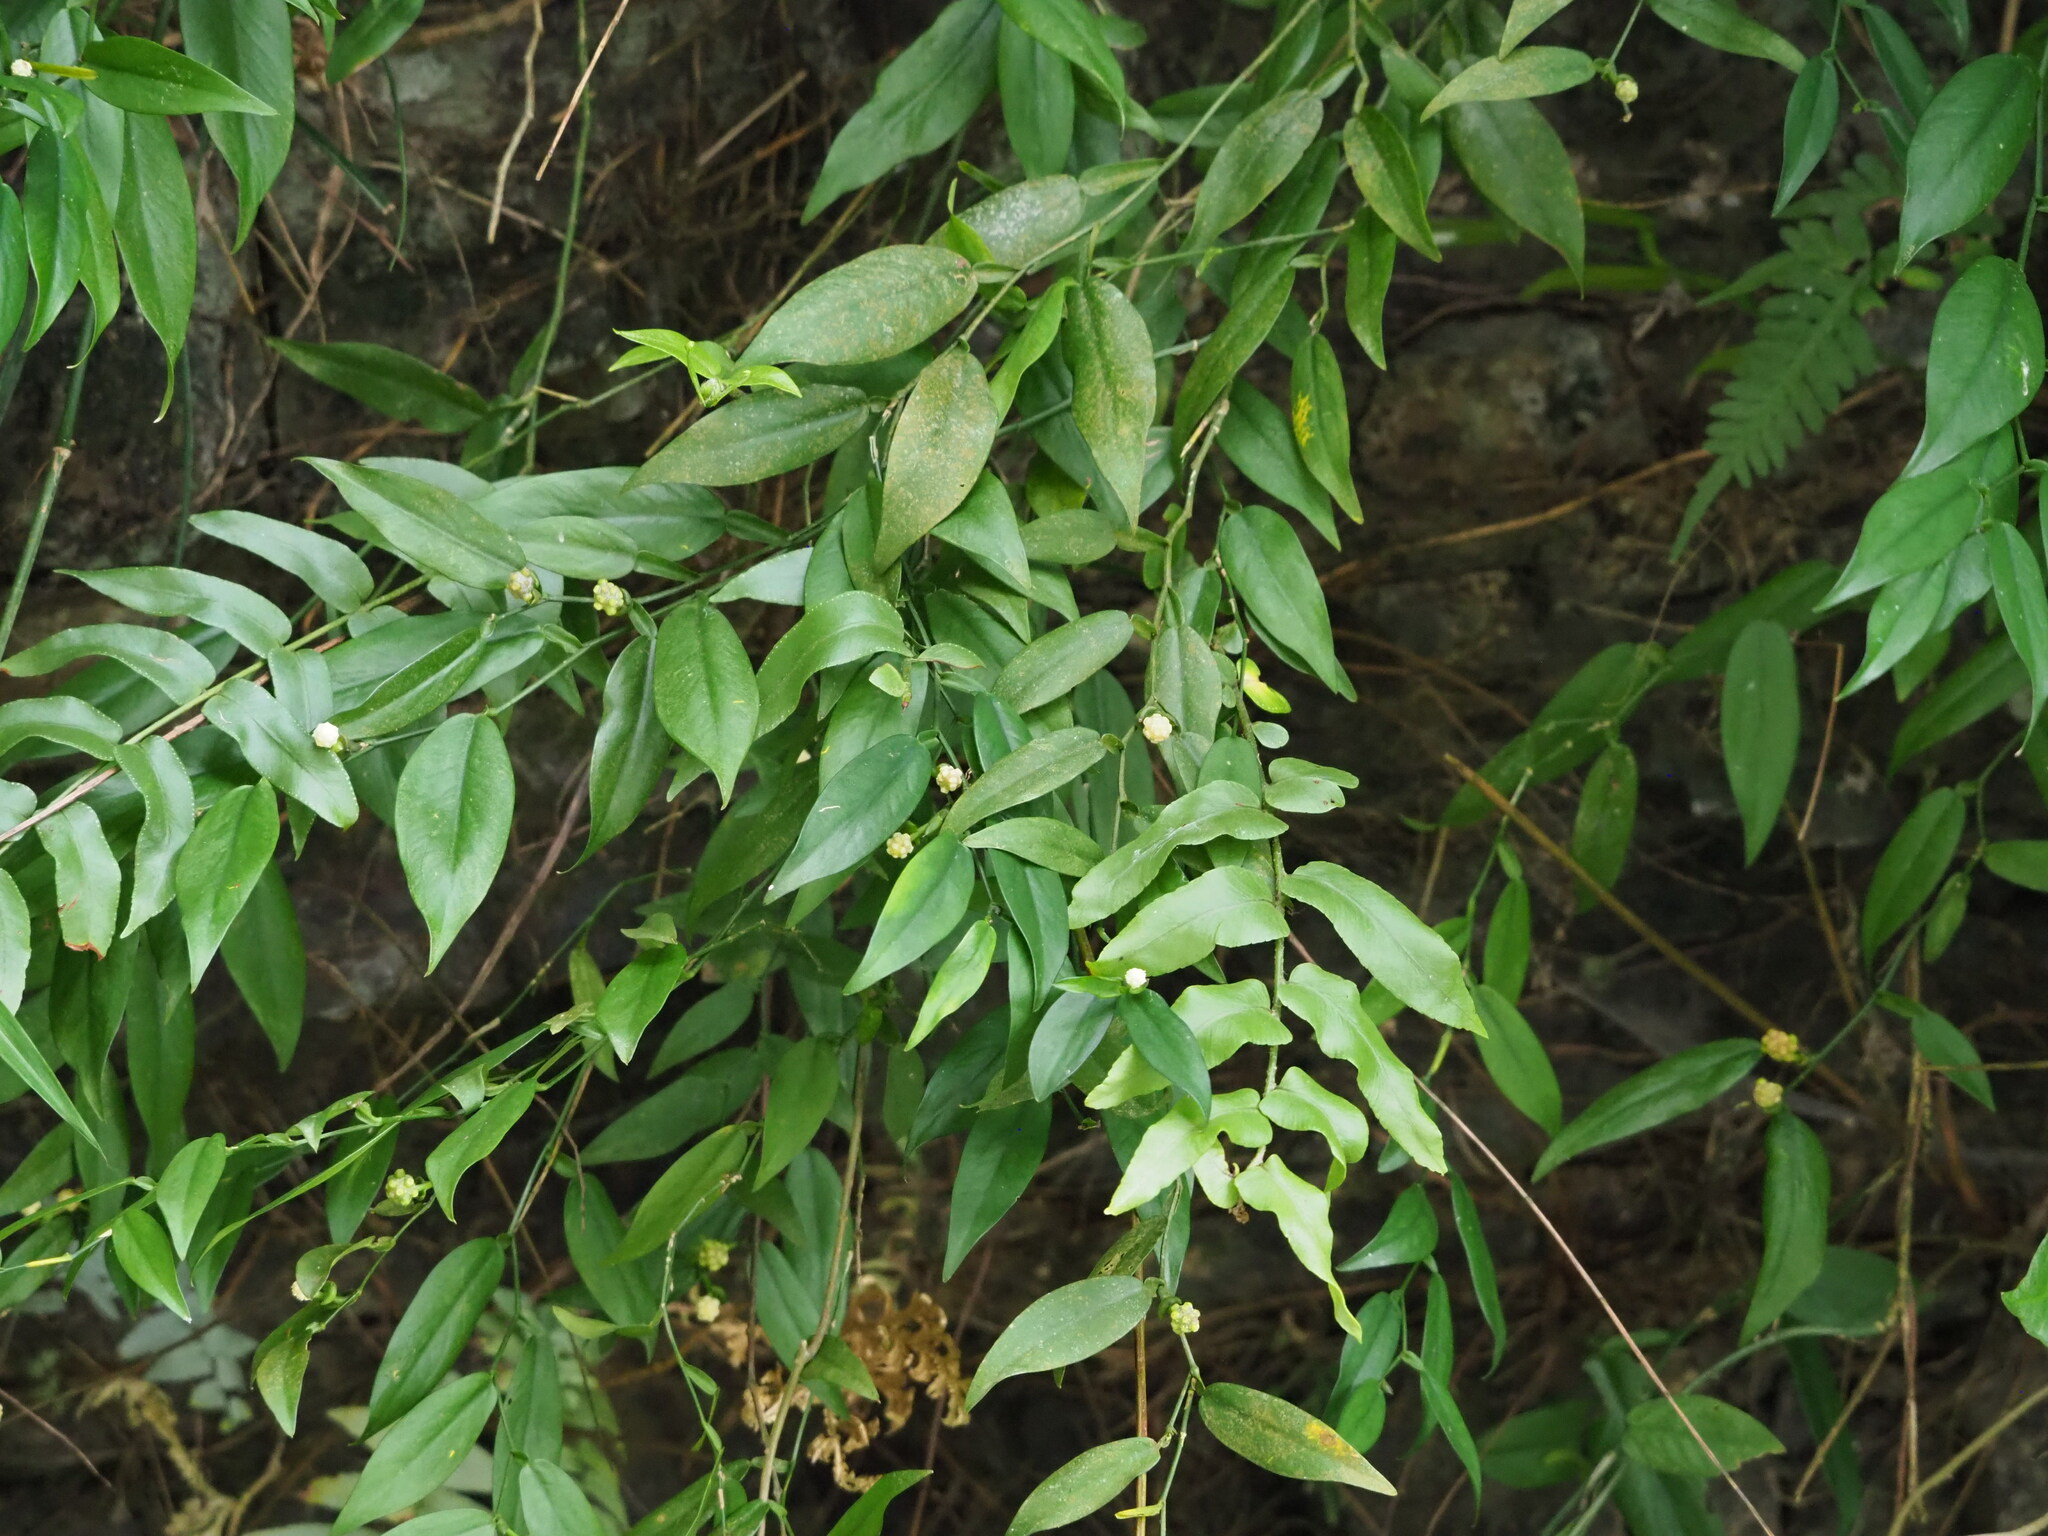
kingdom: Plantae
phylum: Tracheophyta
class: Liliopsida
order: Alismatales
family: Araceae
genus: Pothos
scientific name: Pothos chinensis
